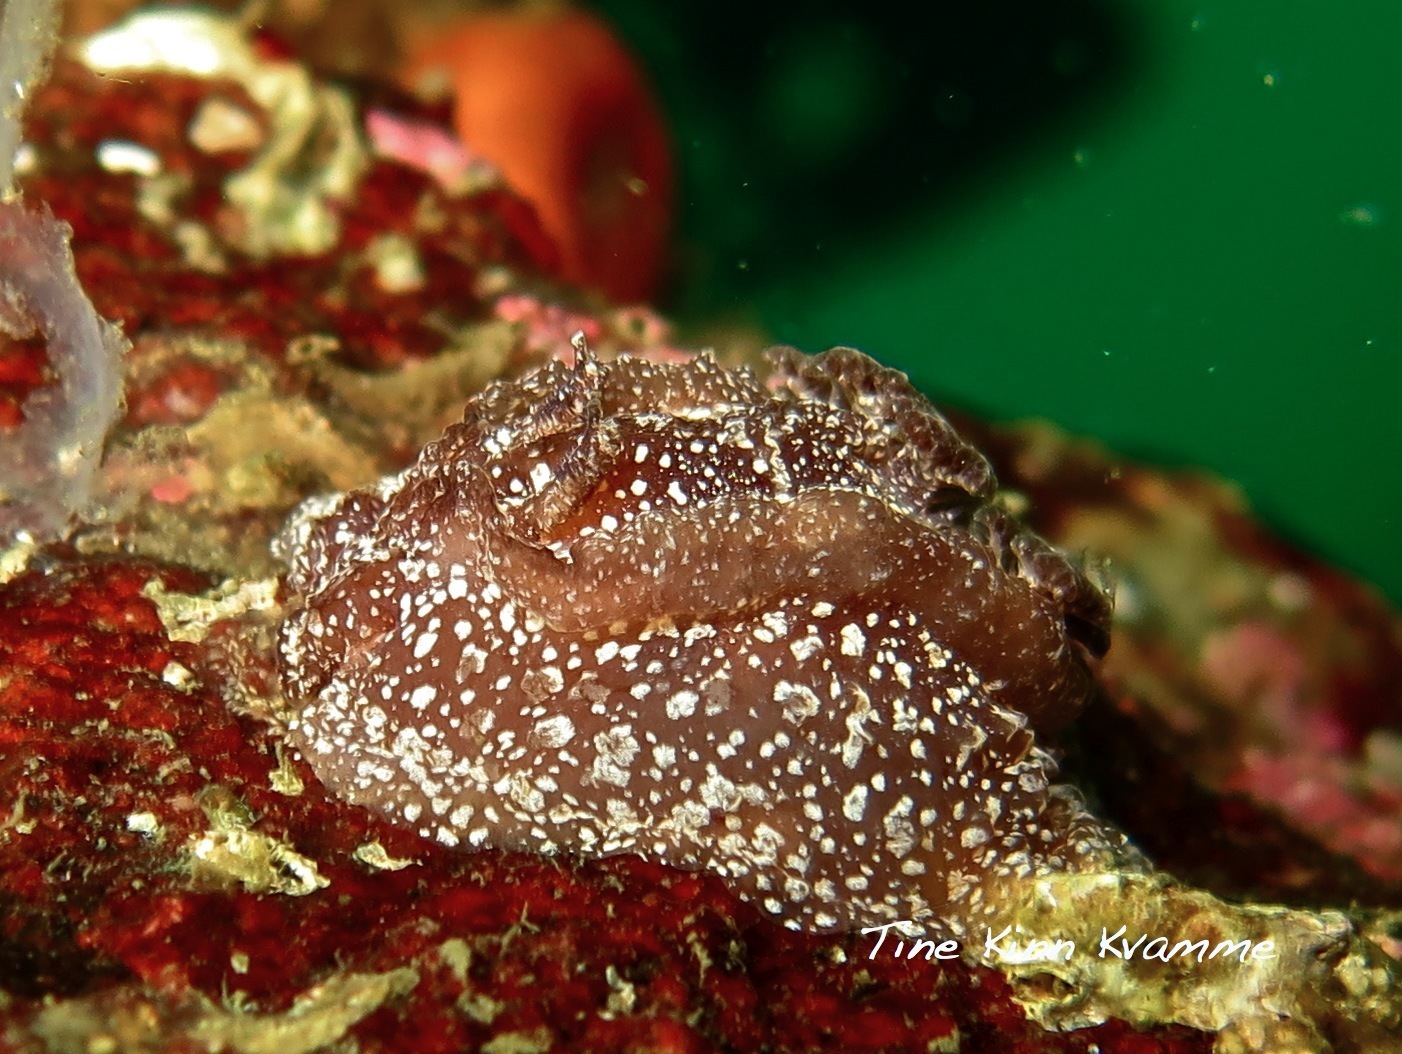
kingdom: Animalia
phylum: Mollusca
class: Gastropoda
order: Nudibranchia
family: Goniodorididae
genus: Pelagella
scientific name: Pelagella castanea
